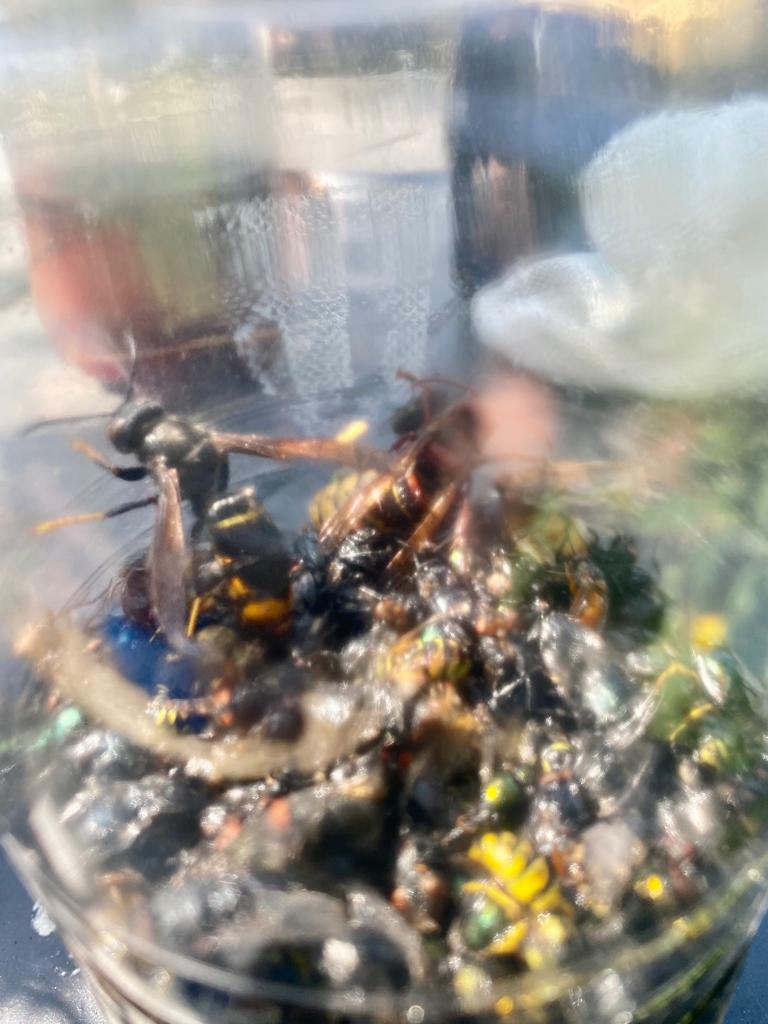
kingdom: Animalia
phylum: Arthropoda
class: Insecta
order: Hymenoptera
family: Vespidae
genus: Vespa
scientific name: Vespa velutina
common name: Asian hornet
